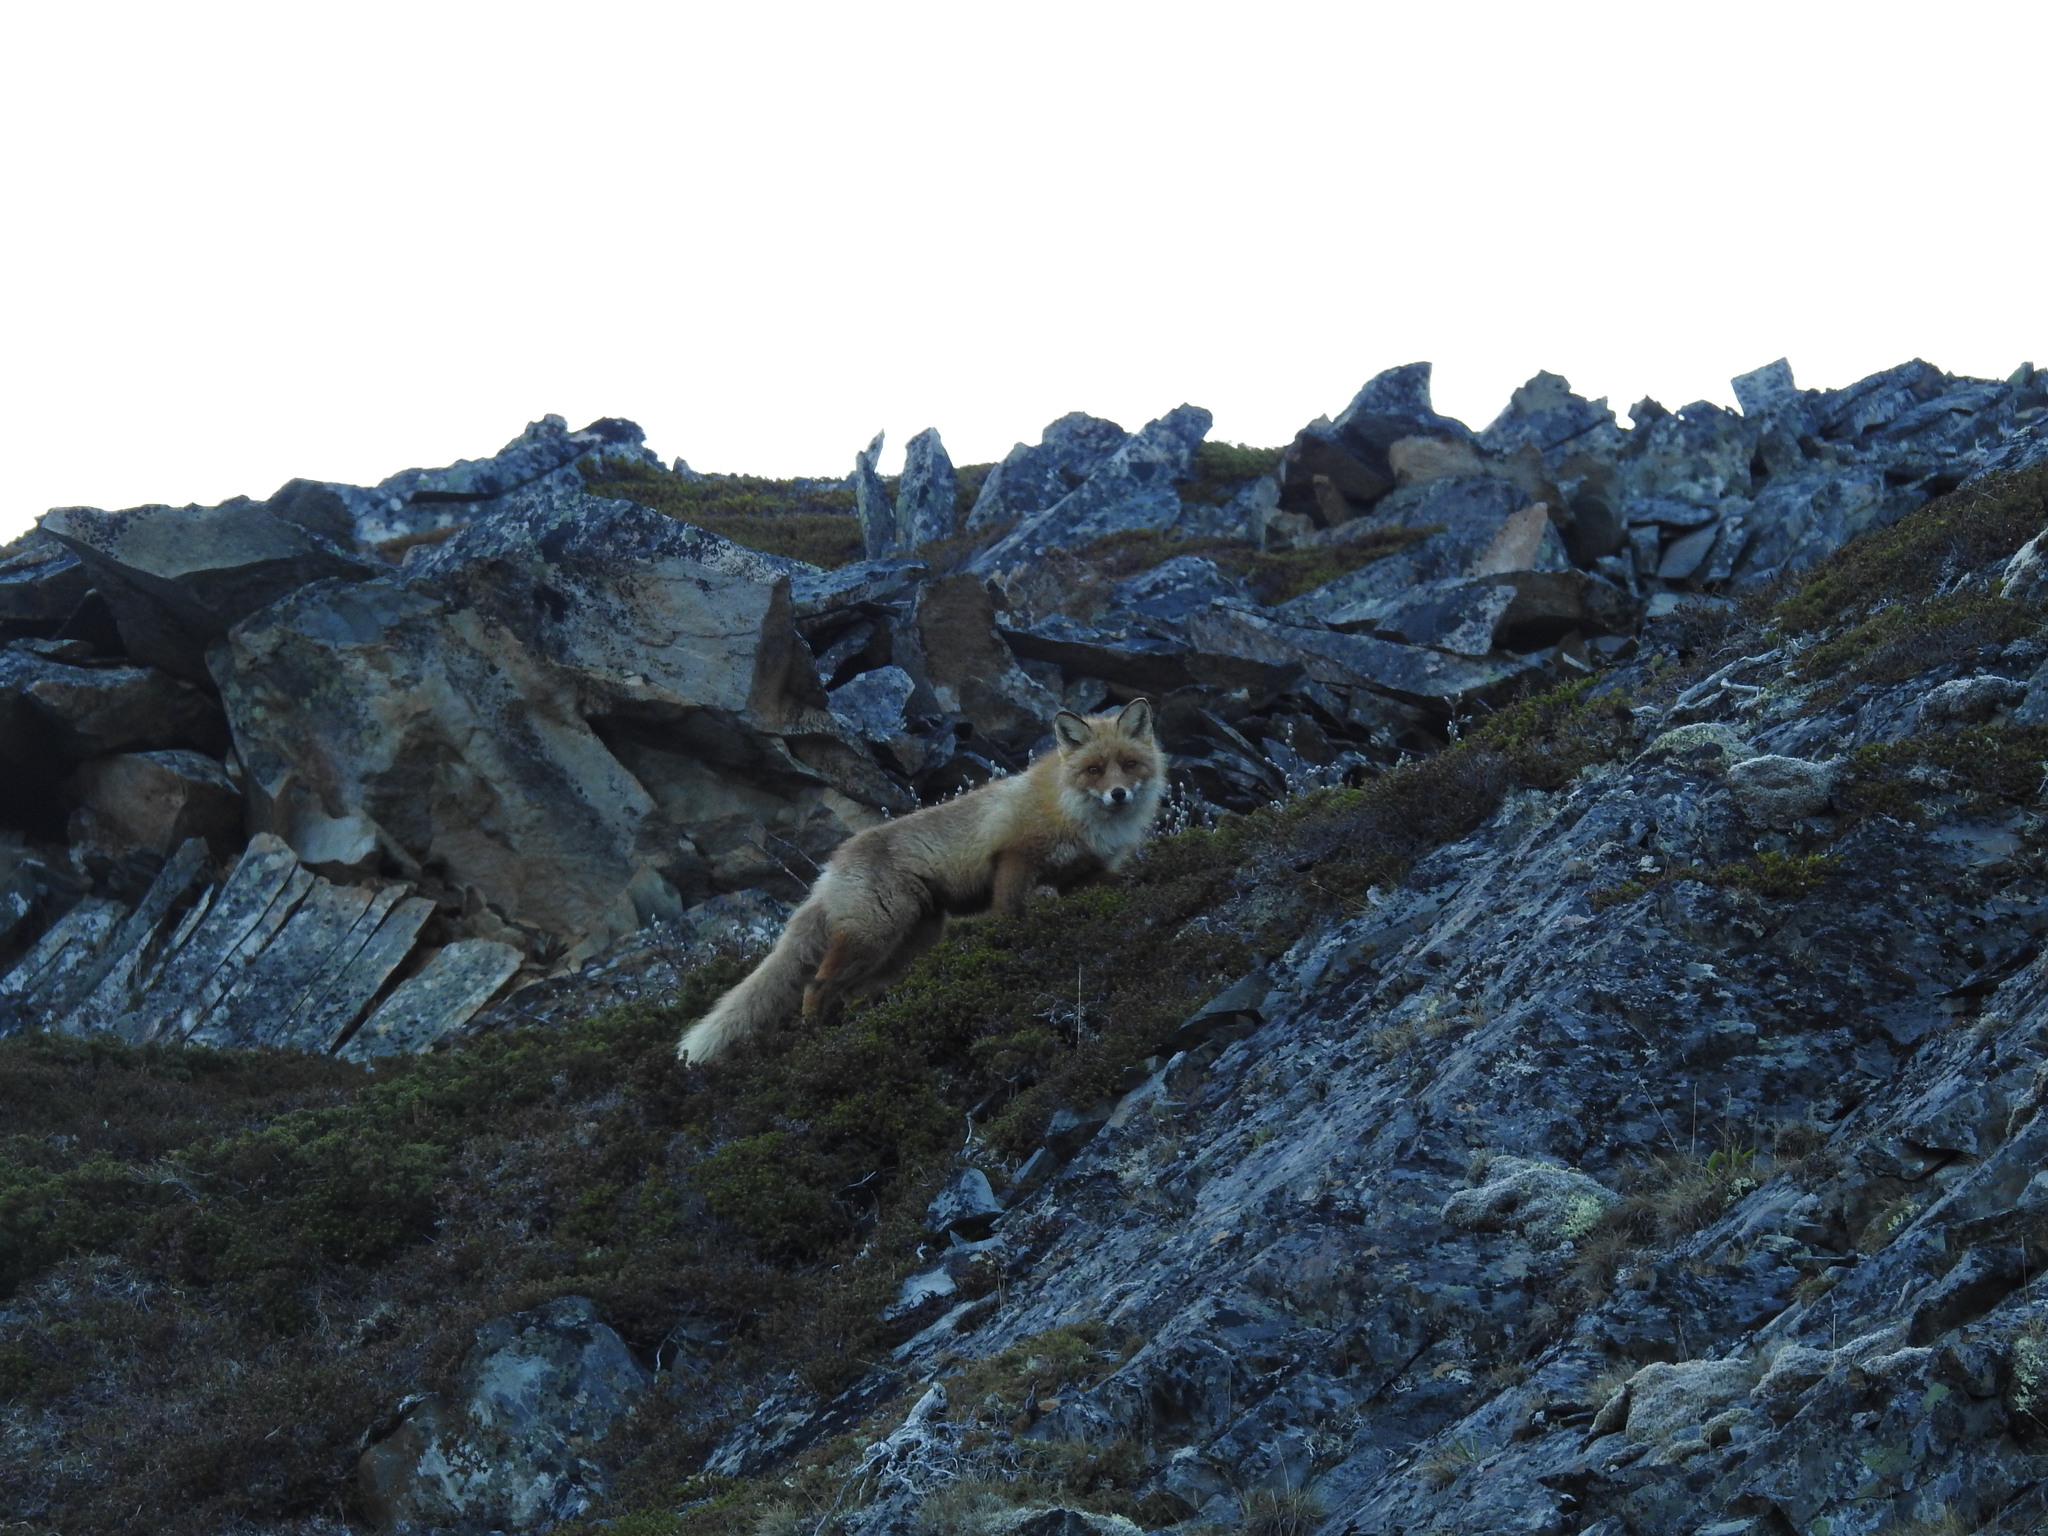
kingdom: Animalia
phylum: Chordata
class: Mammalia
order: Carnivora
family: Canidae
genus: Vulpes
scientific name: Vulpes vulpes
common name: Red fox
